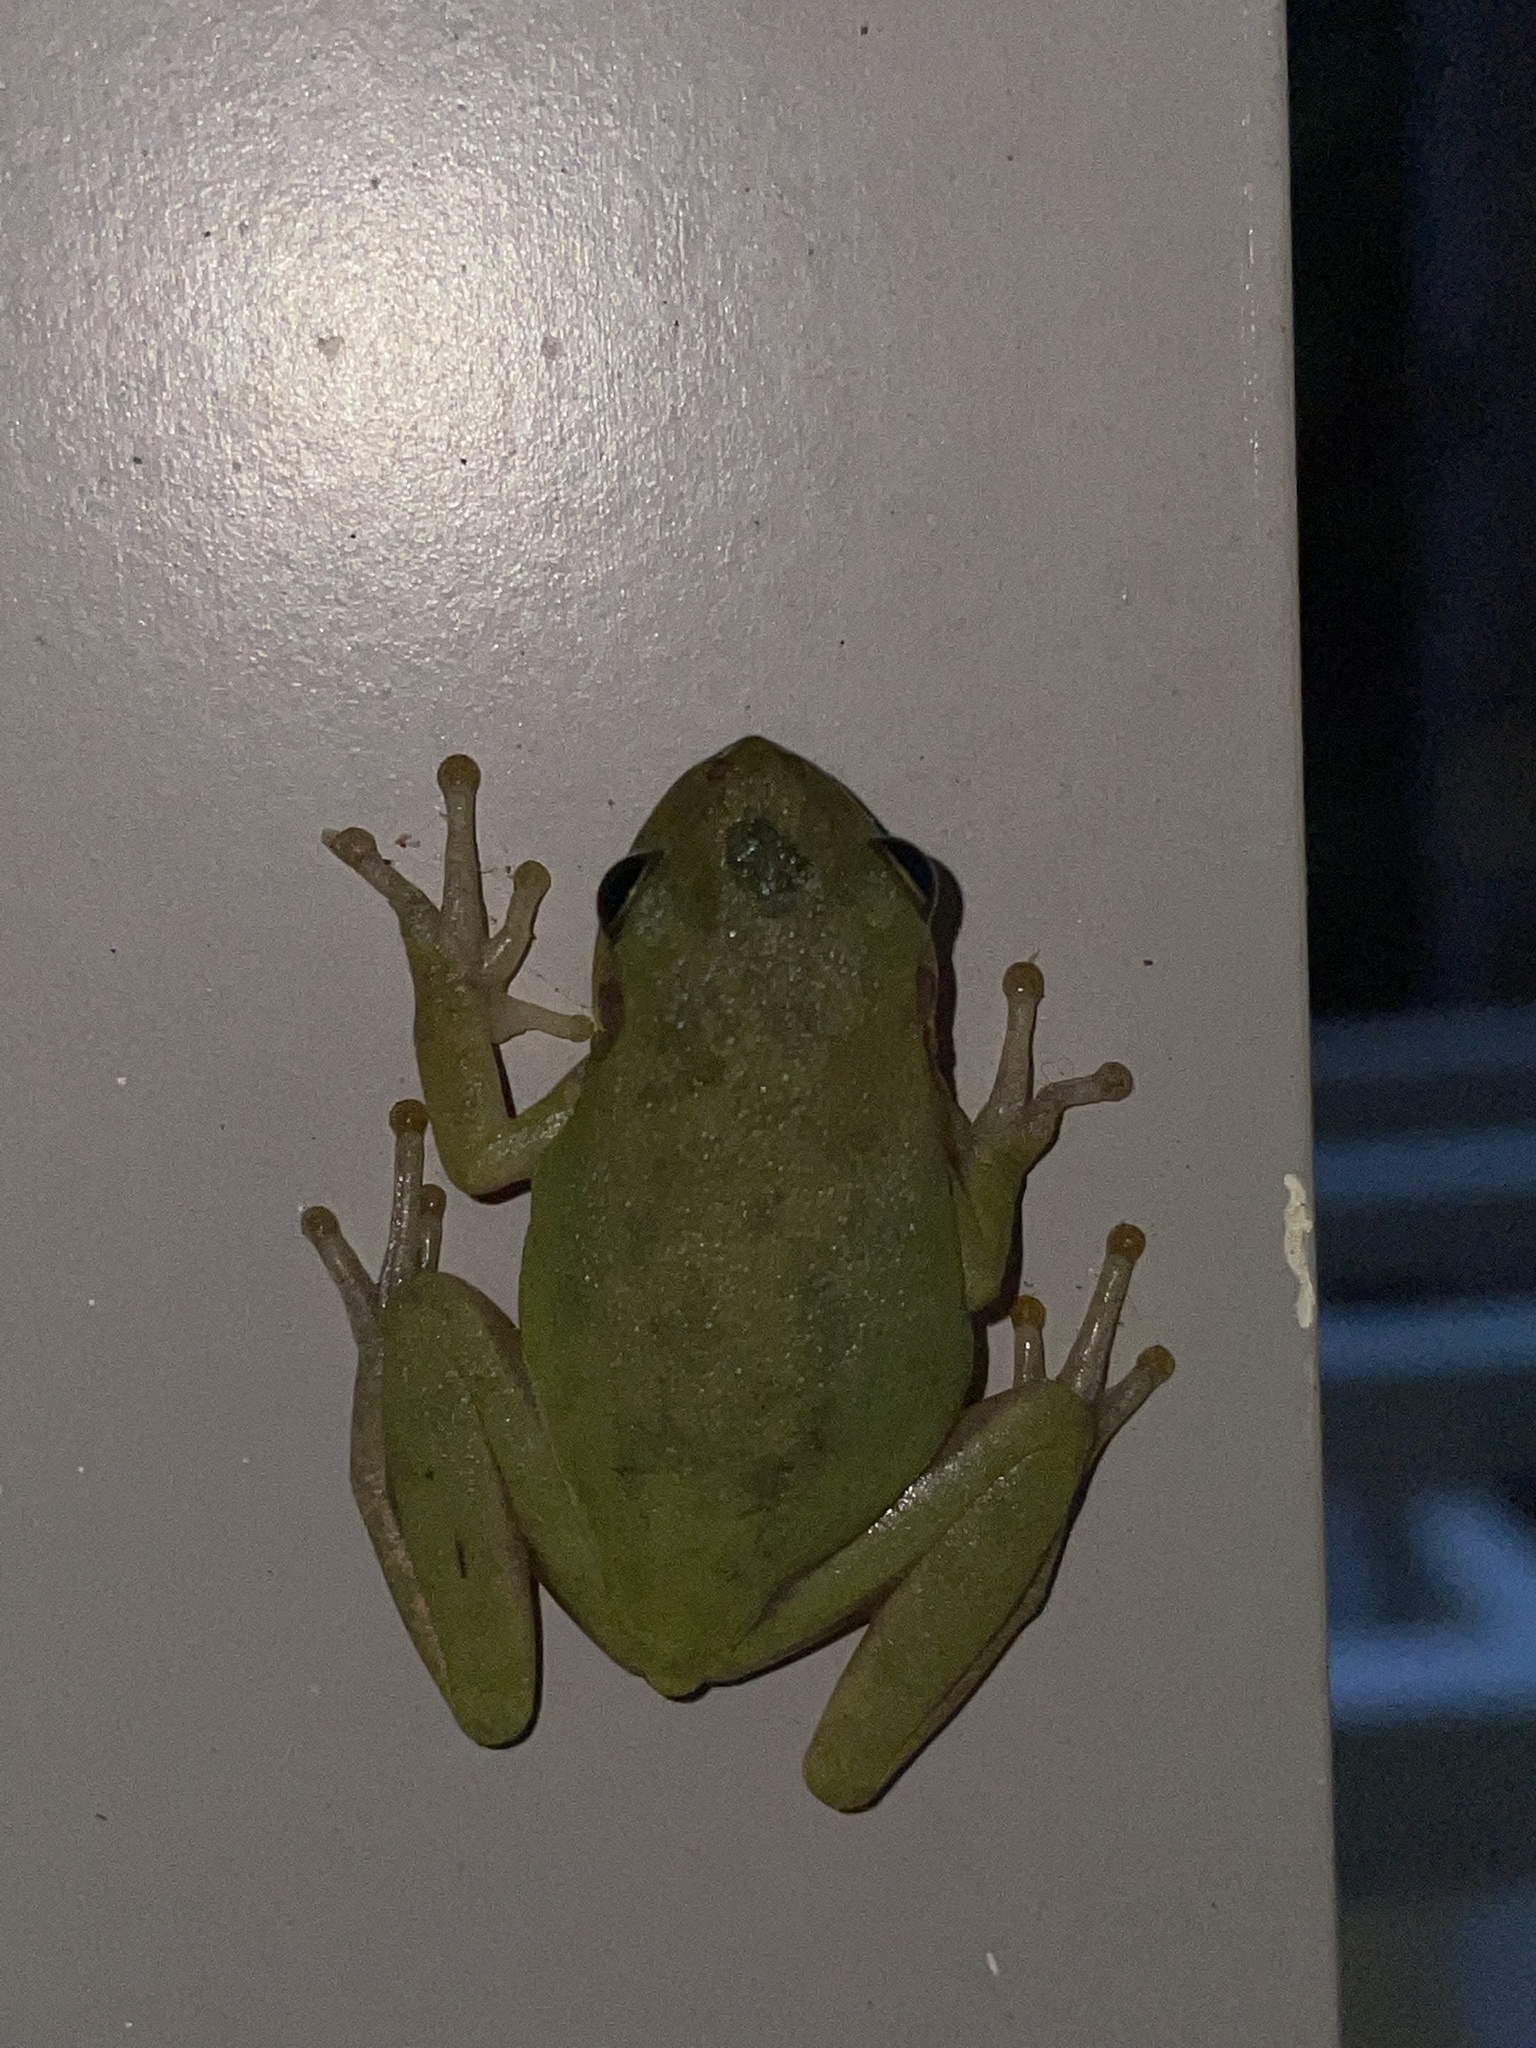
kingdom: Animalia
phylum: Chordata
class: Amphibia
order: Anura
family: Hylidae
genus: Dryophytes
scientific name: Dryophytes squirellus
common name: Squirrel treefrog
